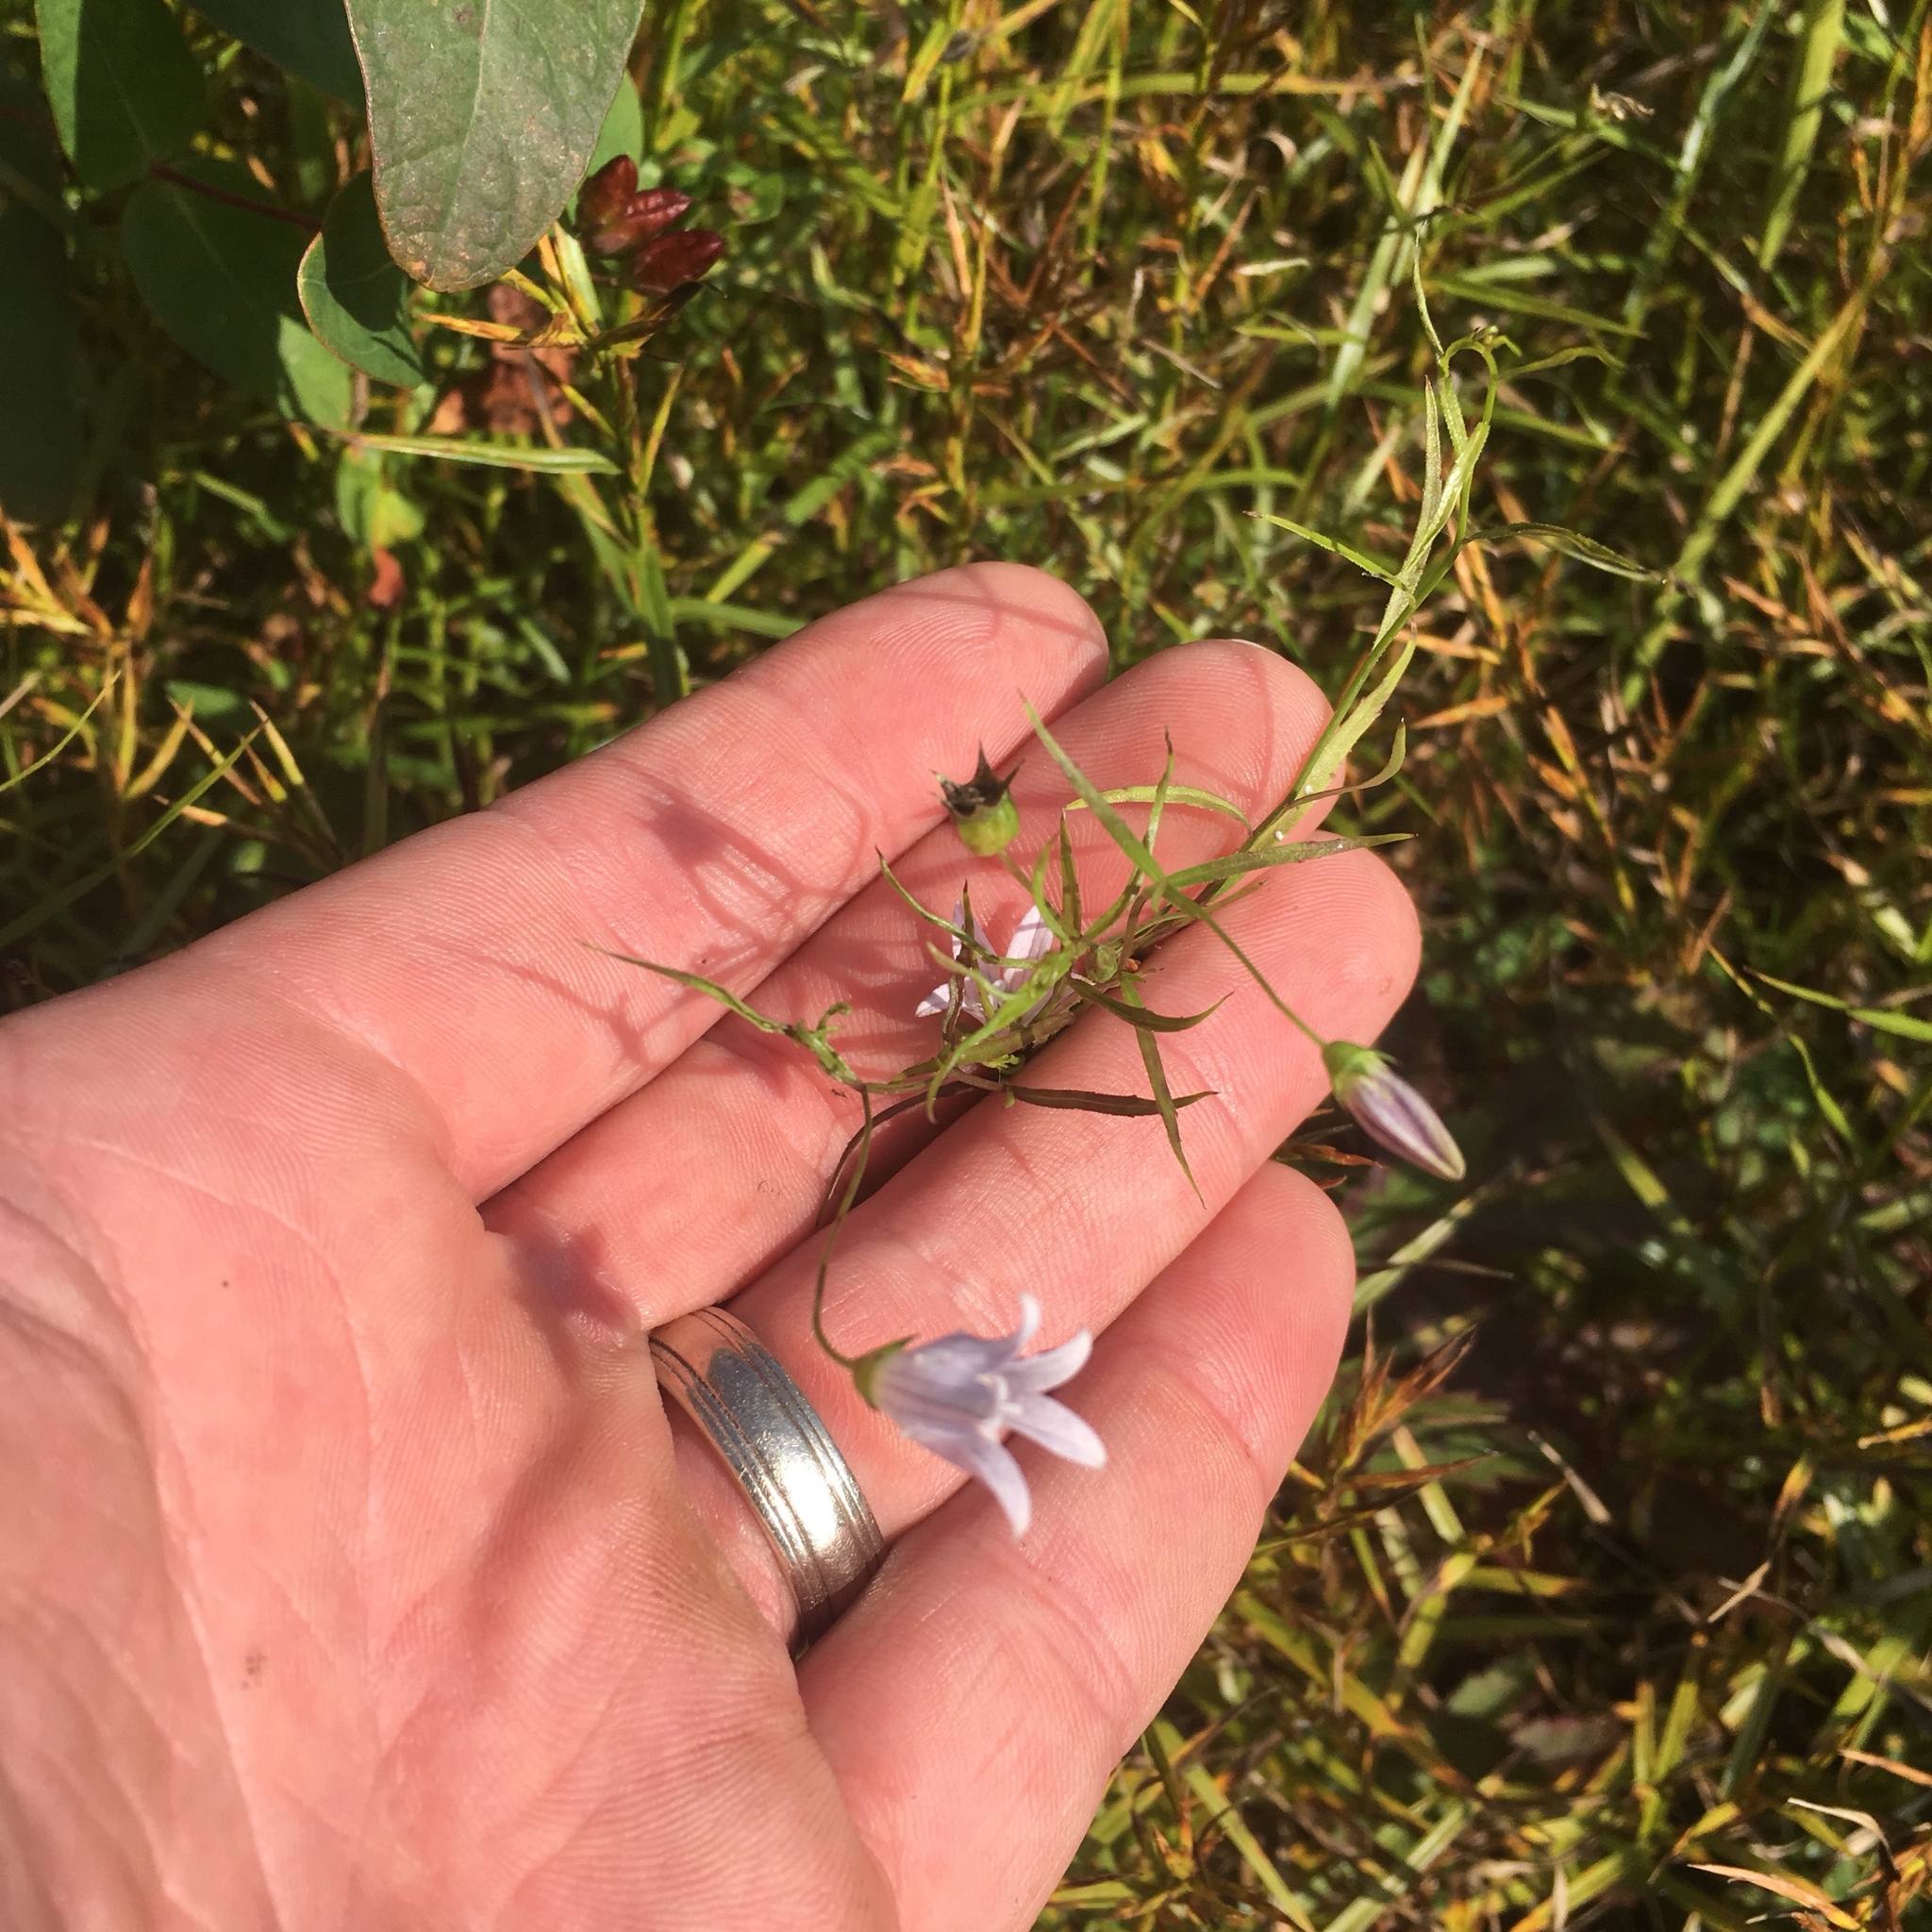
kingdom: Plantae
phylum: Tracheophyta
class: Magnoliopsida
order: Asterales
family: Campanulaceae
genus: Palustricodon
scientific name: Palustricodon aparinoides
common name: Bedstraw bellflower
